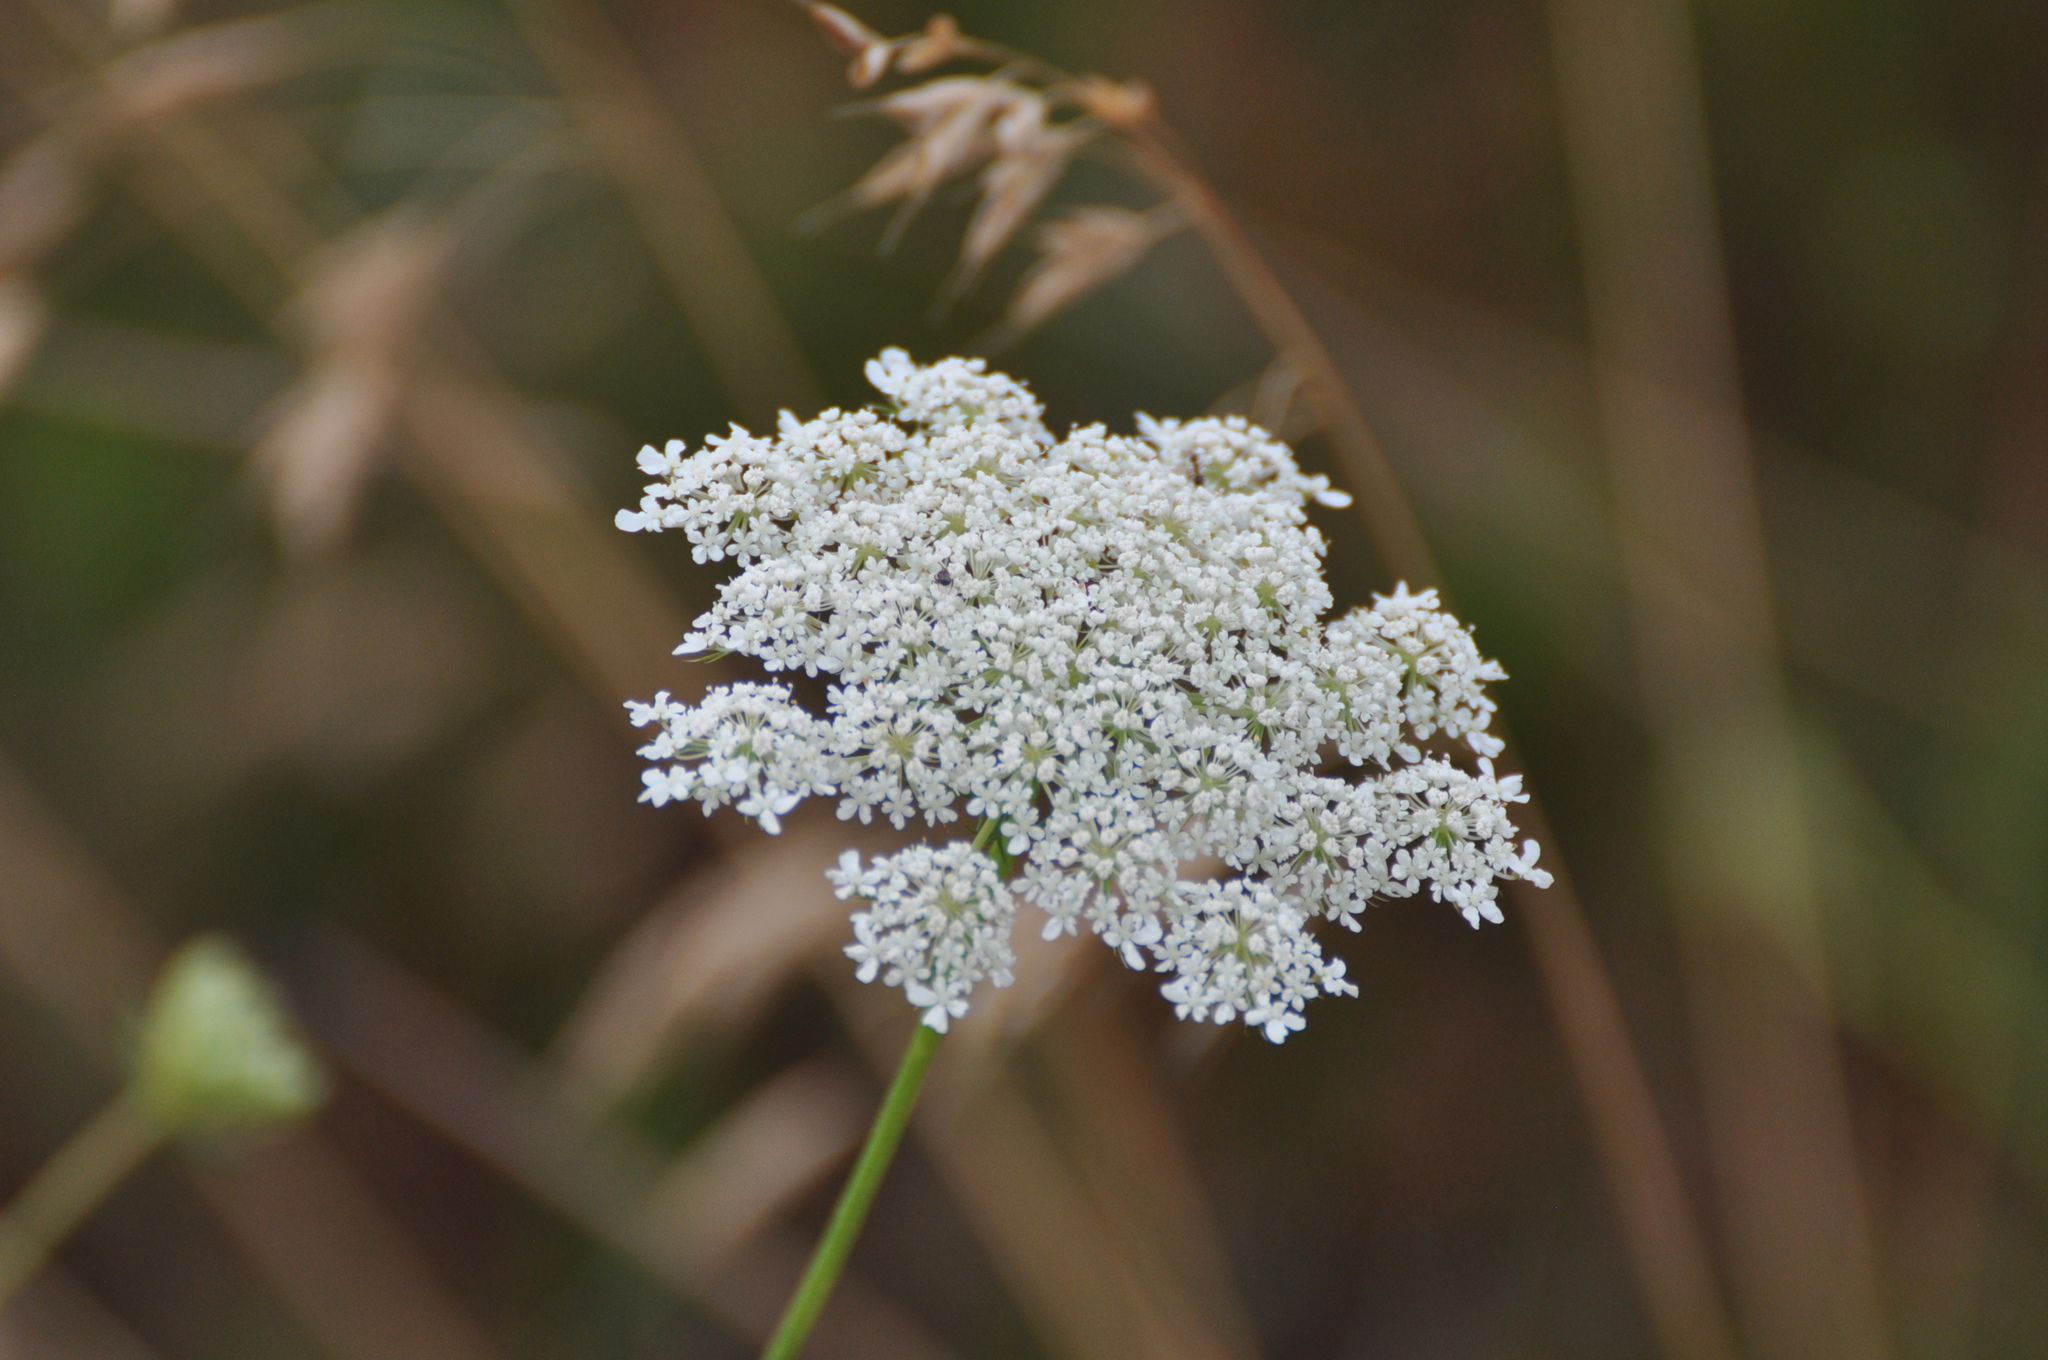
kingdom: Plantae
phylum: Tracheophyta
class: Magnoliopsida
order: Apiales
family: Apiaceae
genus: Daucus
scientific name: Daucus carota
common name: Wild carrot
